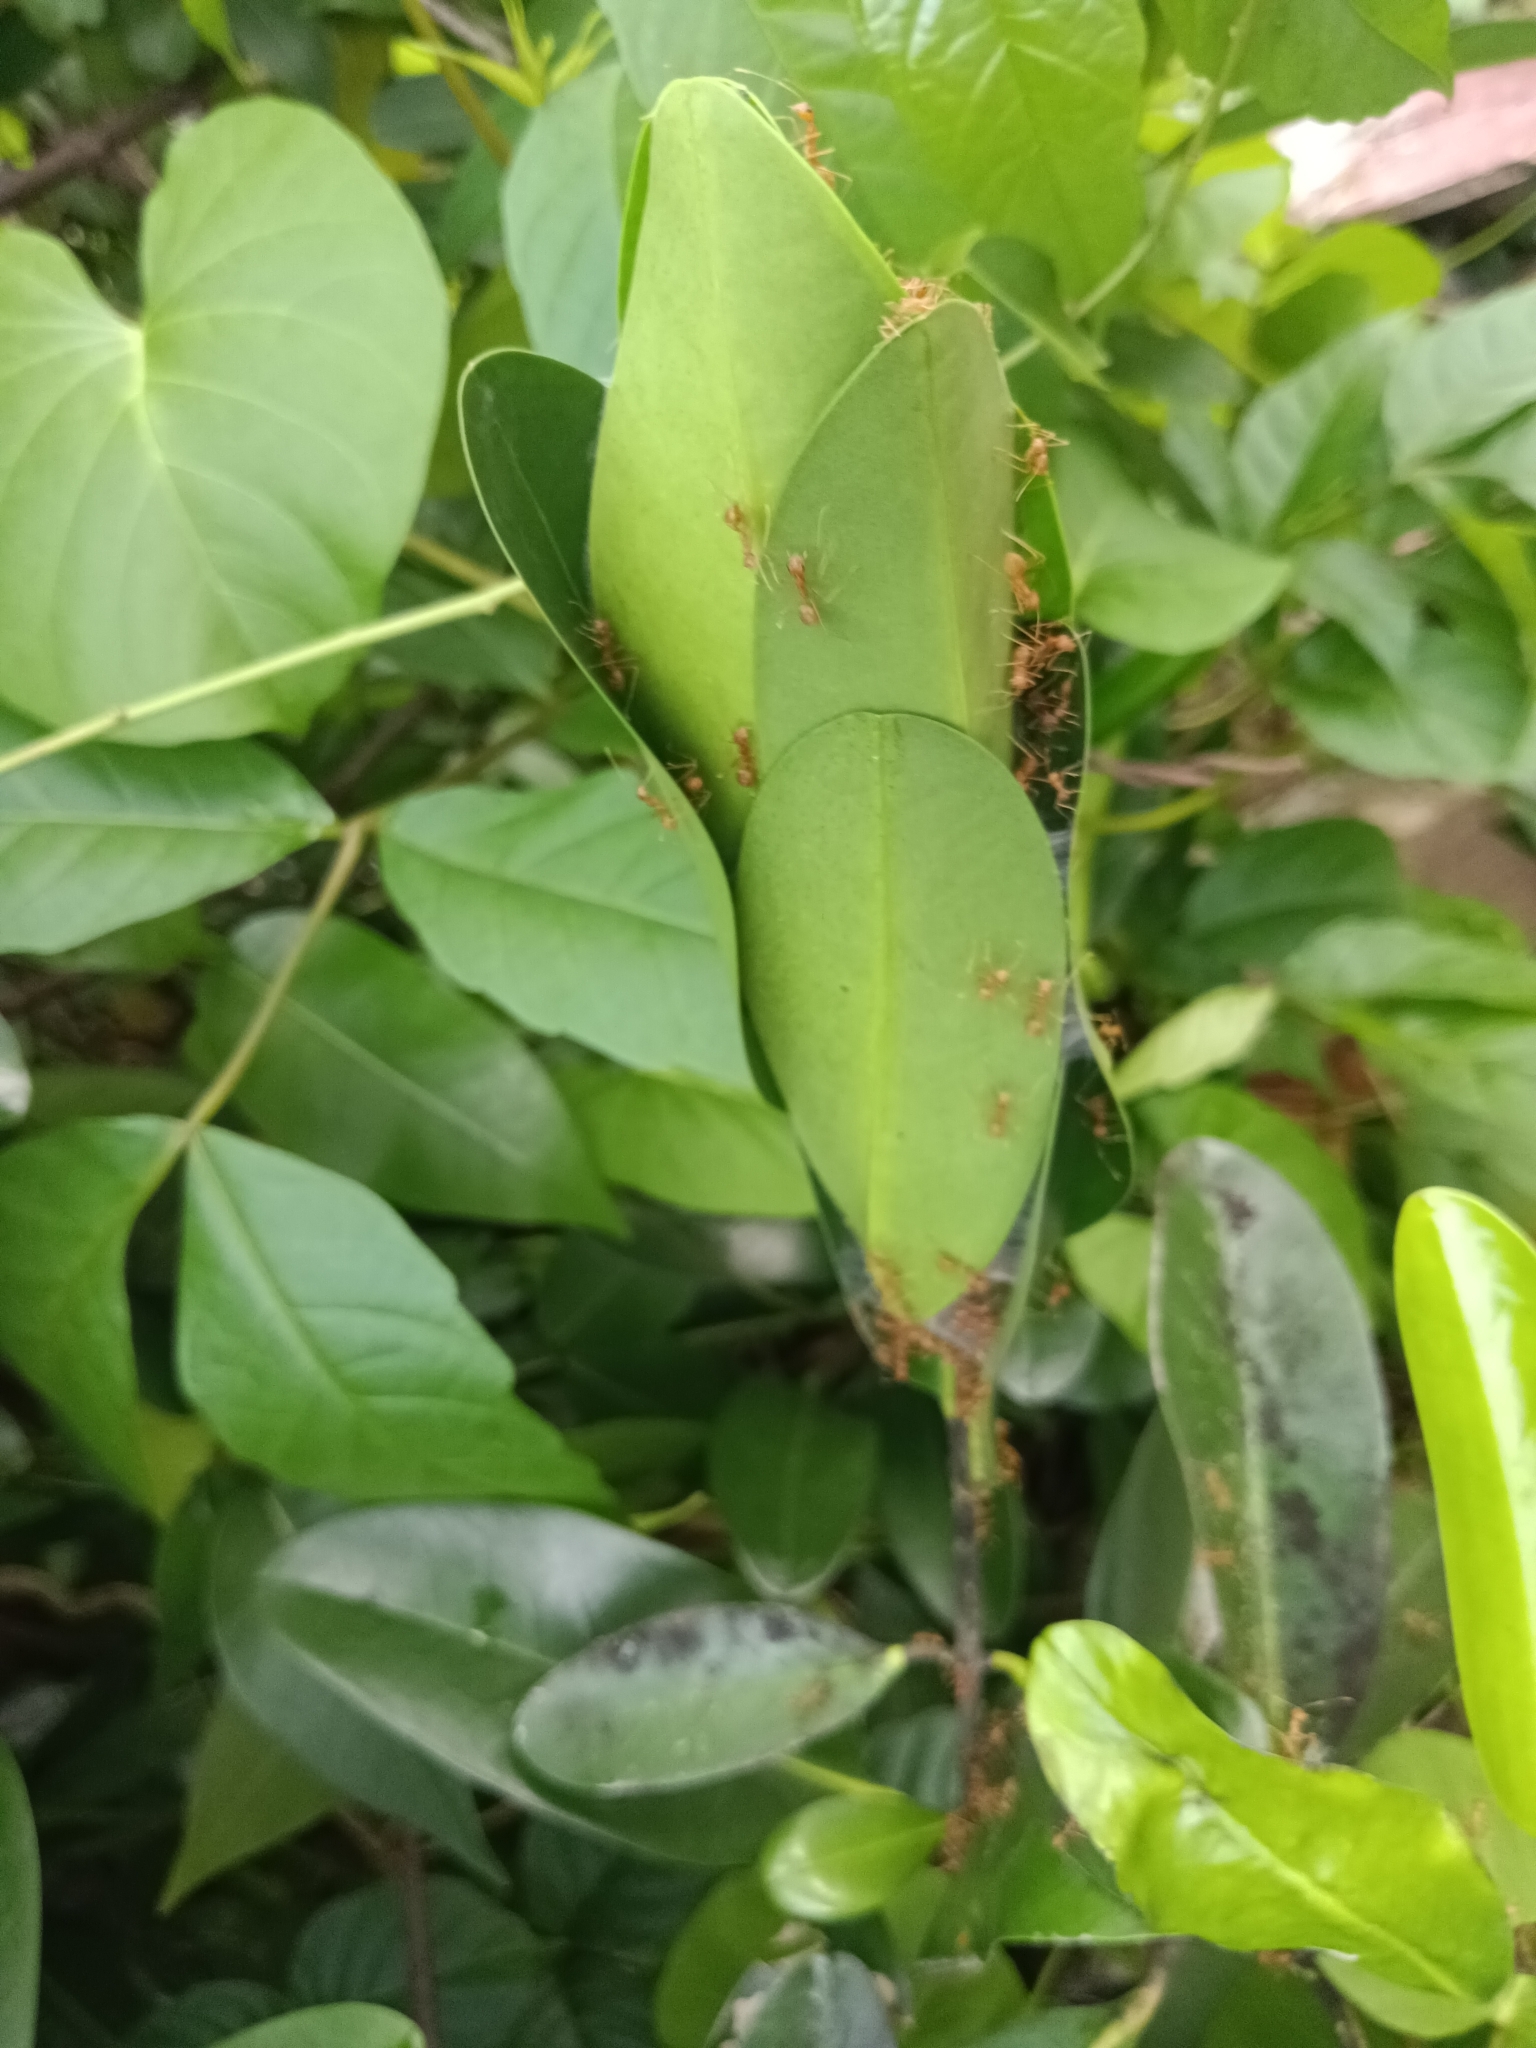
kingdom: Animalia
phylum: Arthropoda
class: Insecta
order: Hymenoptera
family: Formicidae
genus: Oecophylla
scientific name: Oecophylla smaragdina
